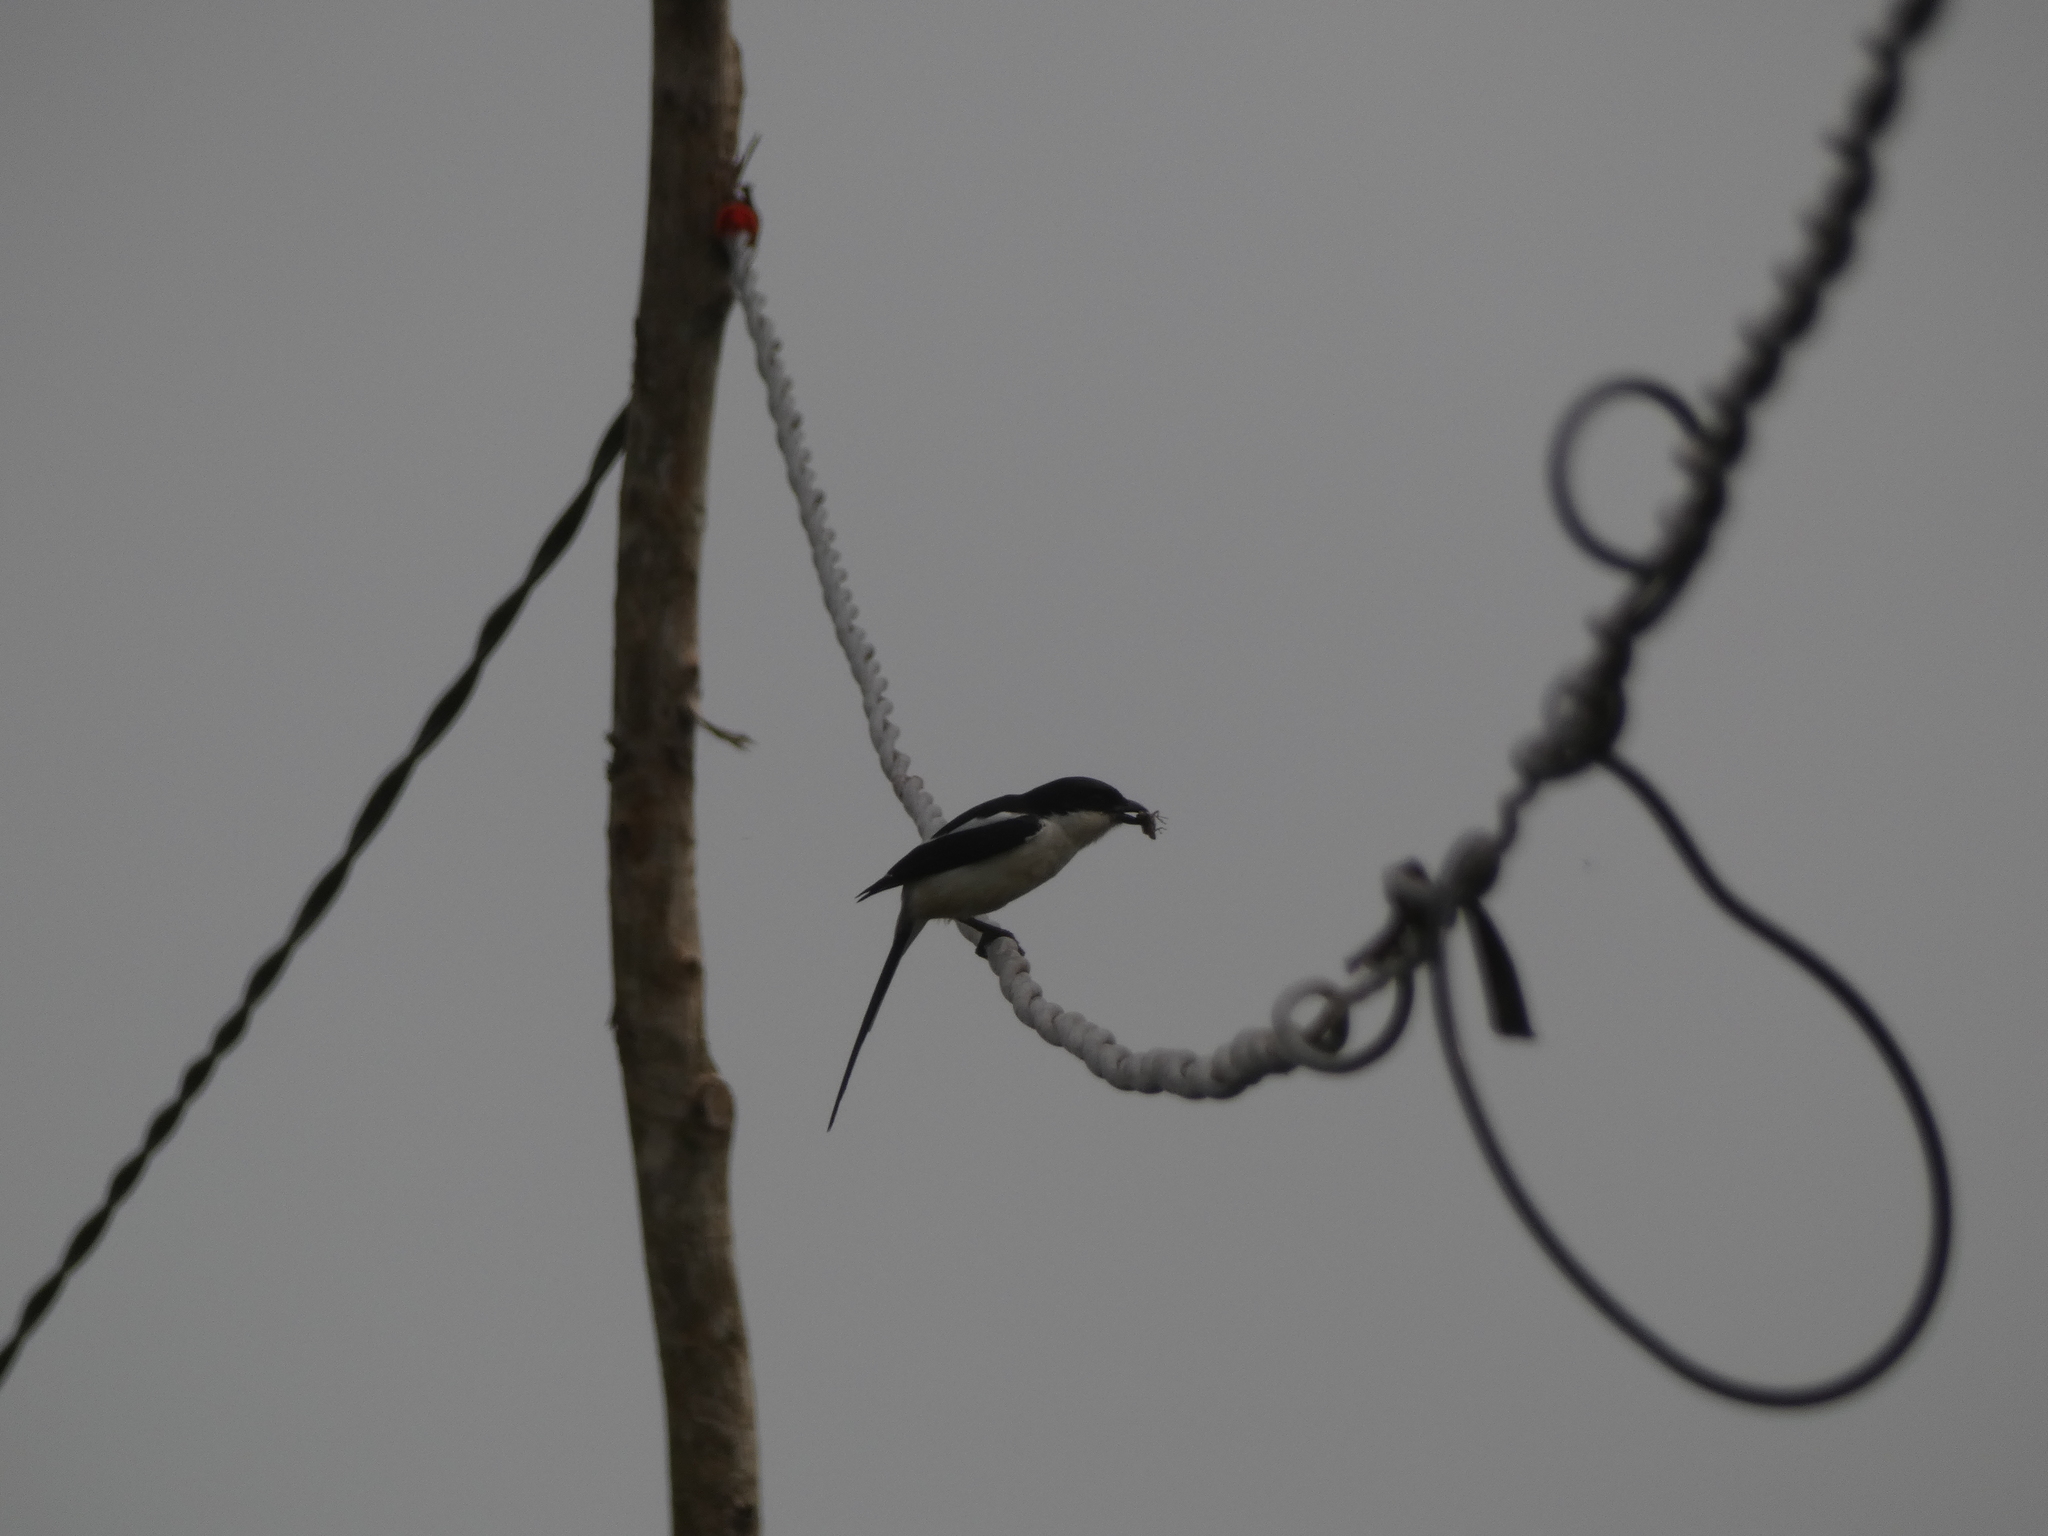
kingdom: Animalia
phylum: Chordata
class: Aves
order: Passeriformes
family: Laniidae
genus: Lanius
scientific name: Lanius humeralis
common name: Northern fiscal
